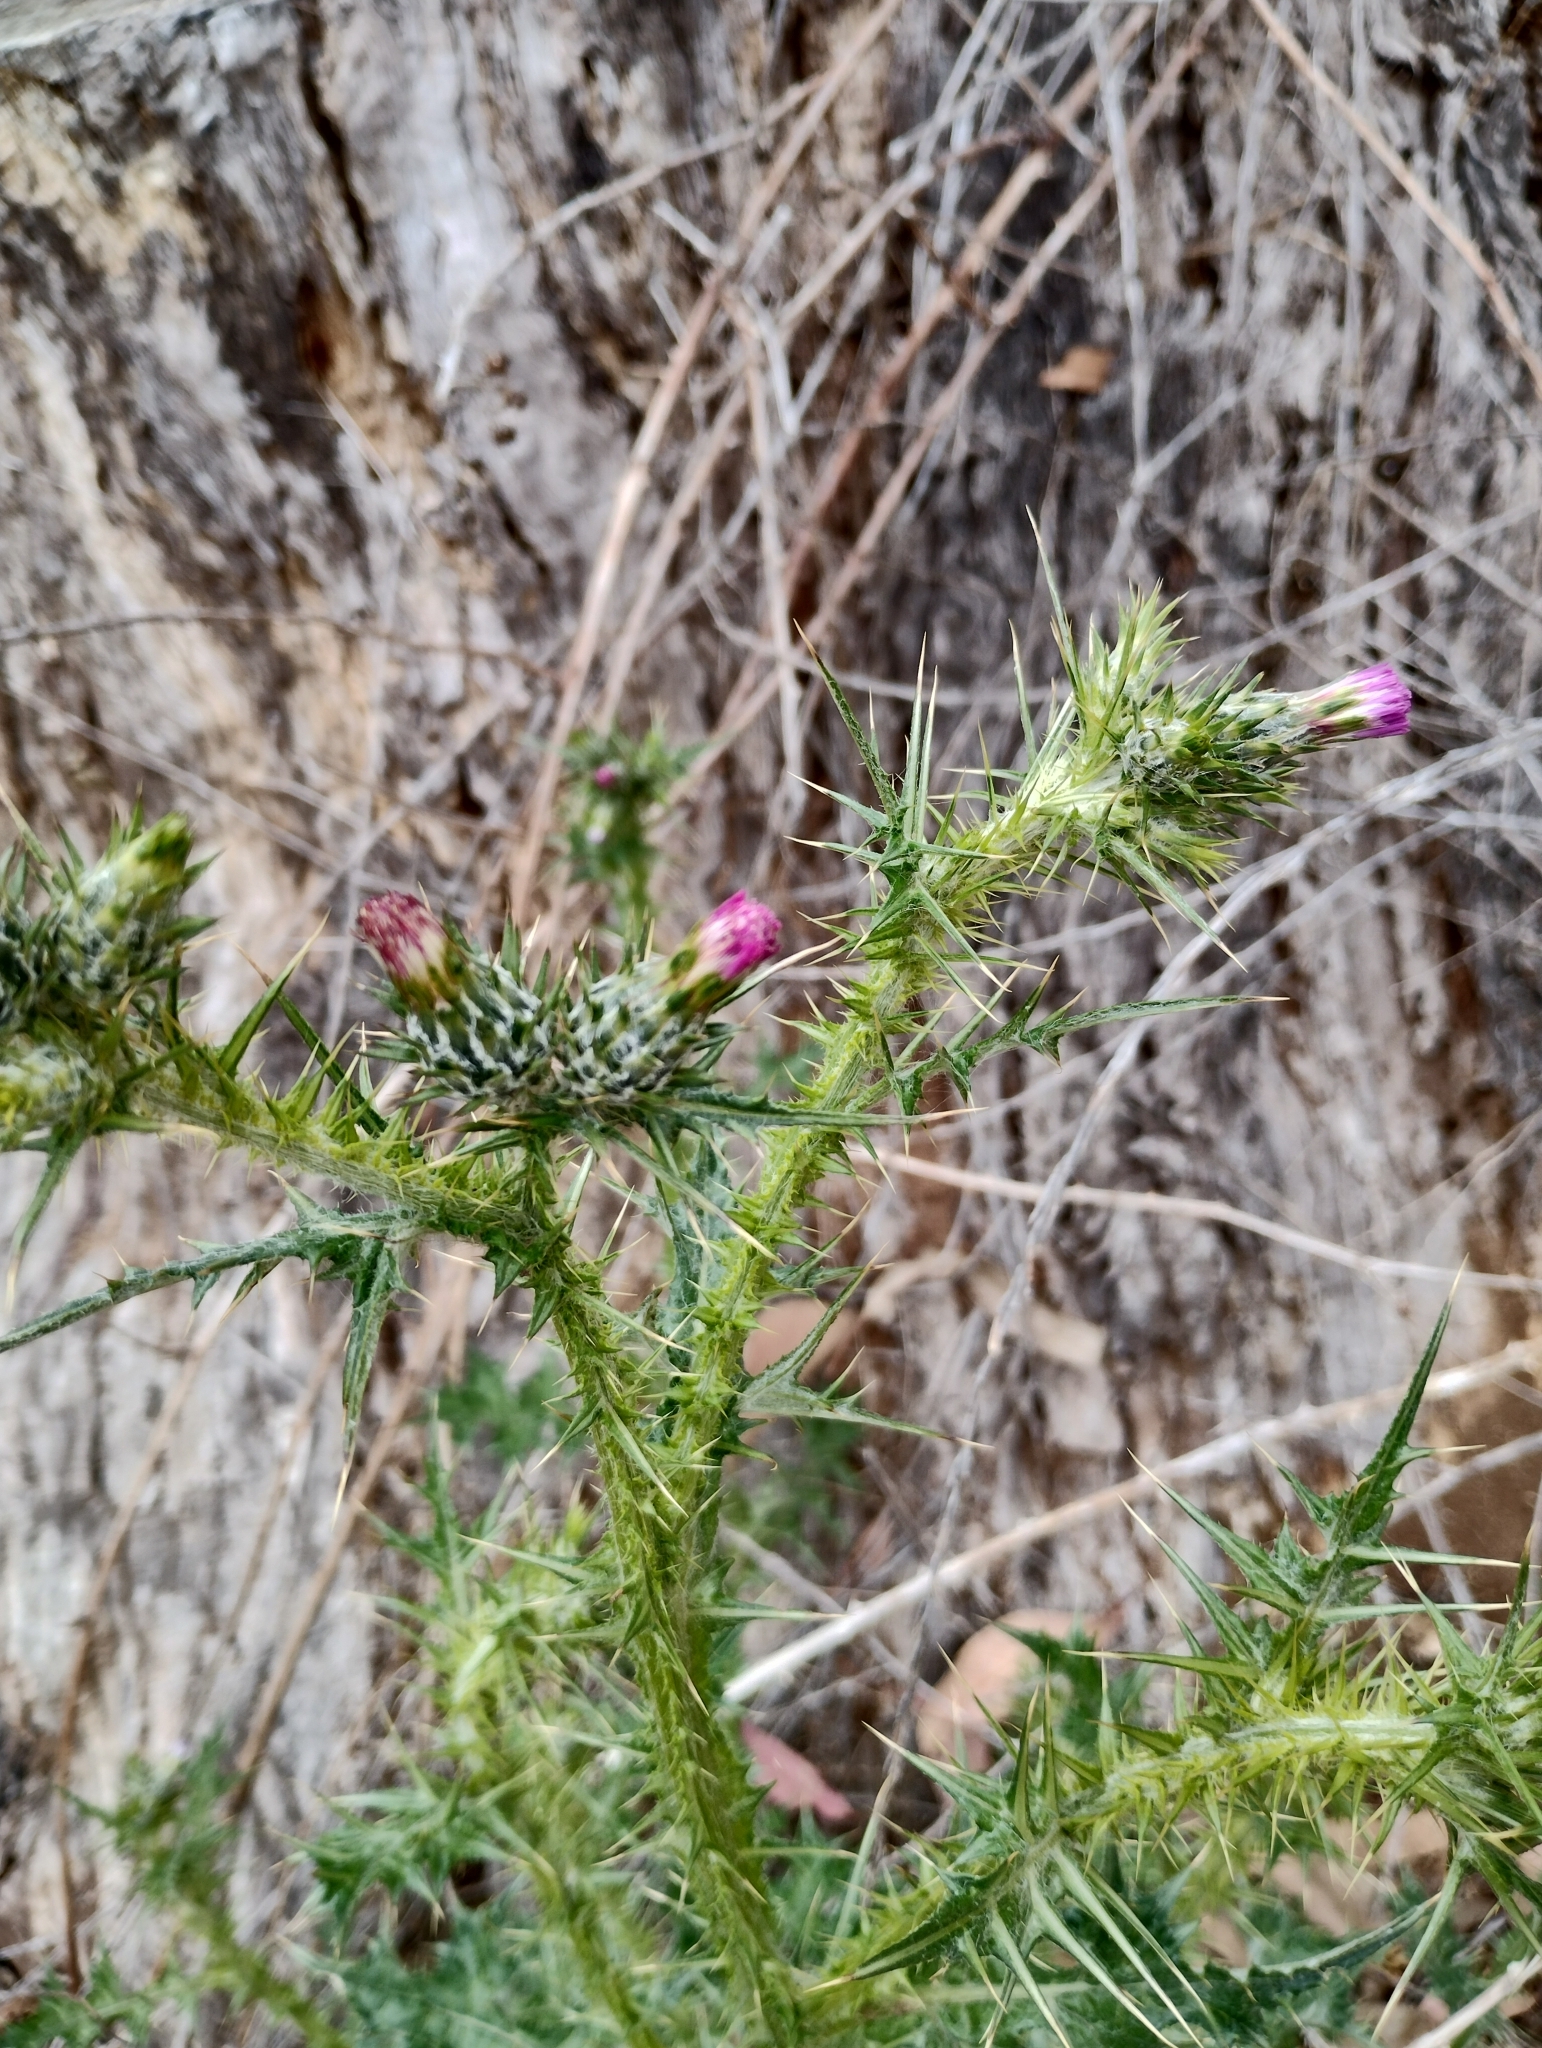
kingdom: Plantae
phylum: Tracheophyta
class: Magnoliopsida
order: Asterales
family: Asteraceae
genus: Carduus
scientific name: Carduus pycnocephalus
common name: Plymouth thistle
